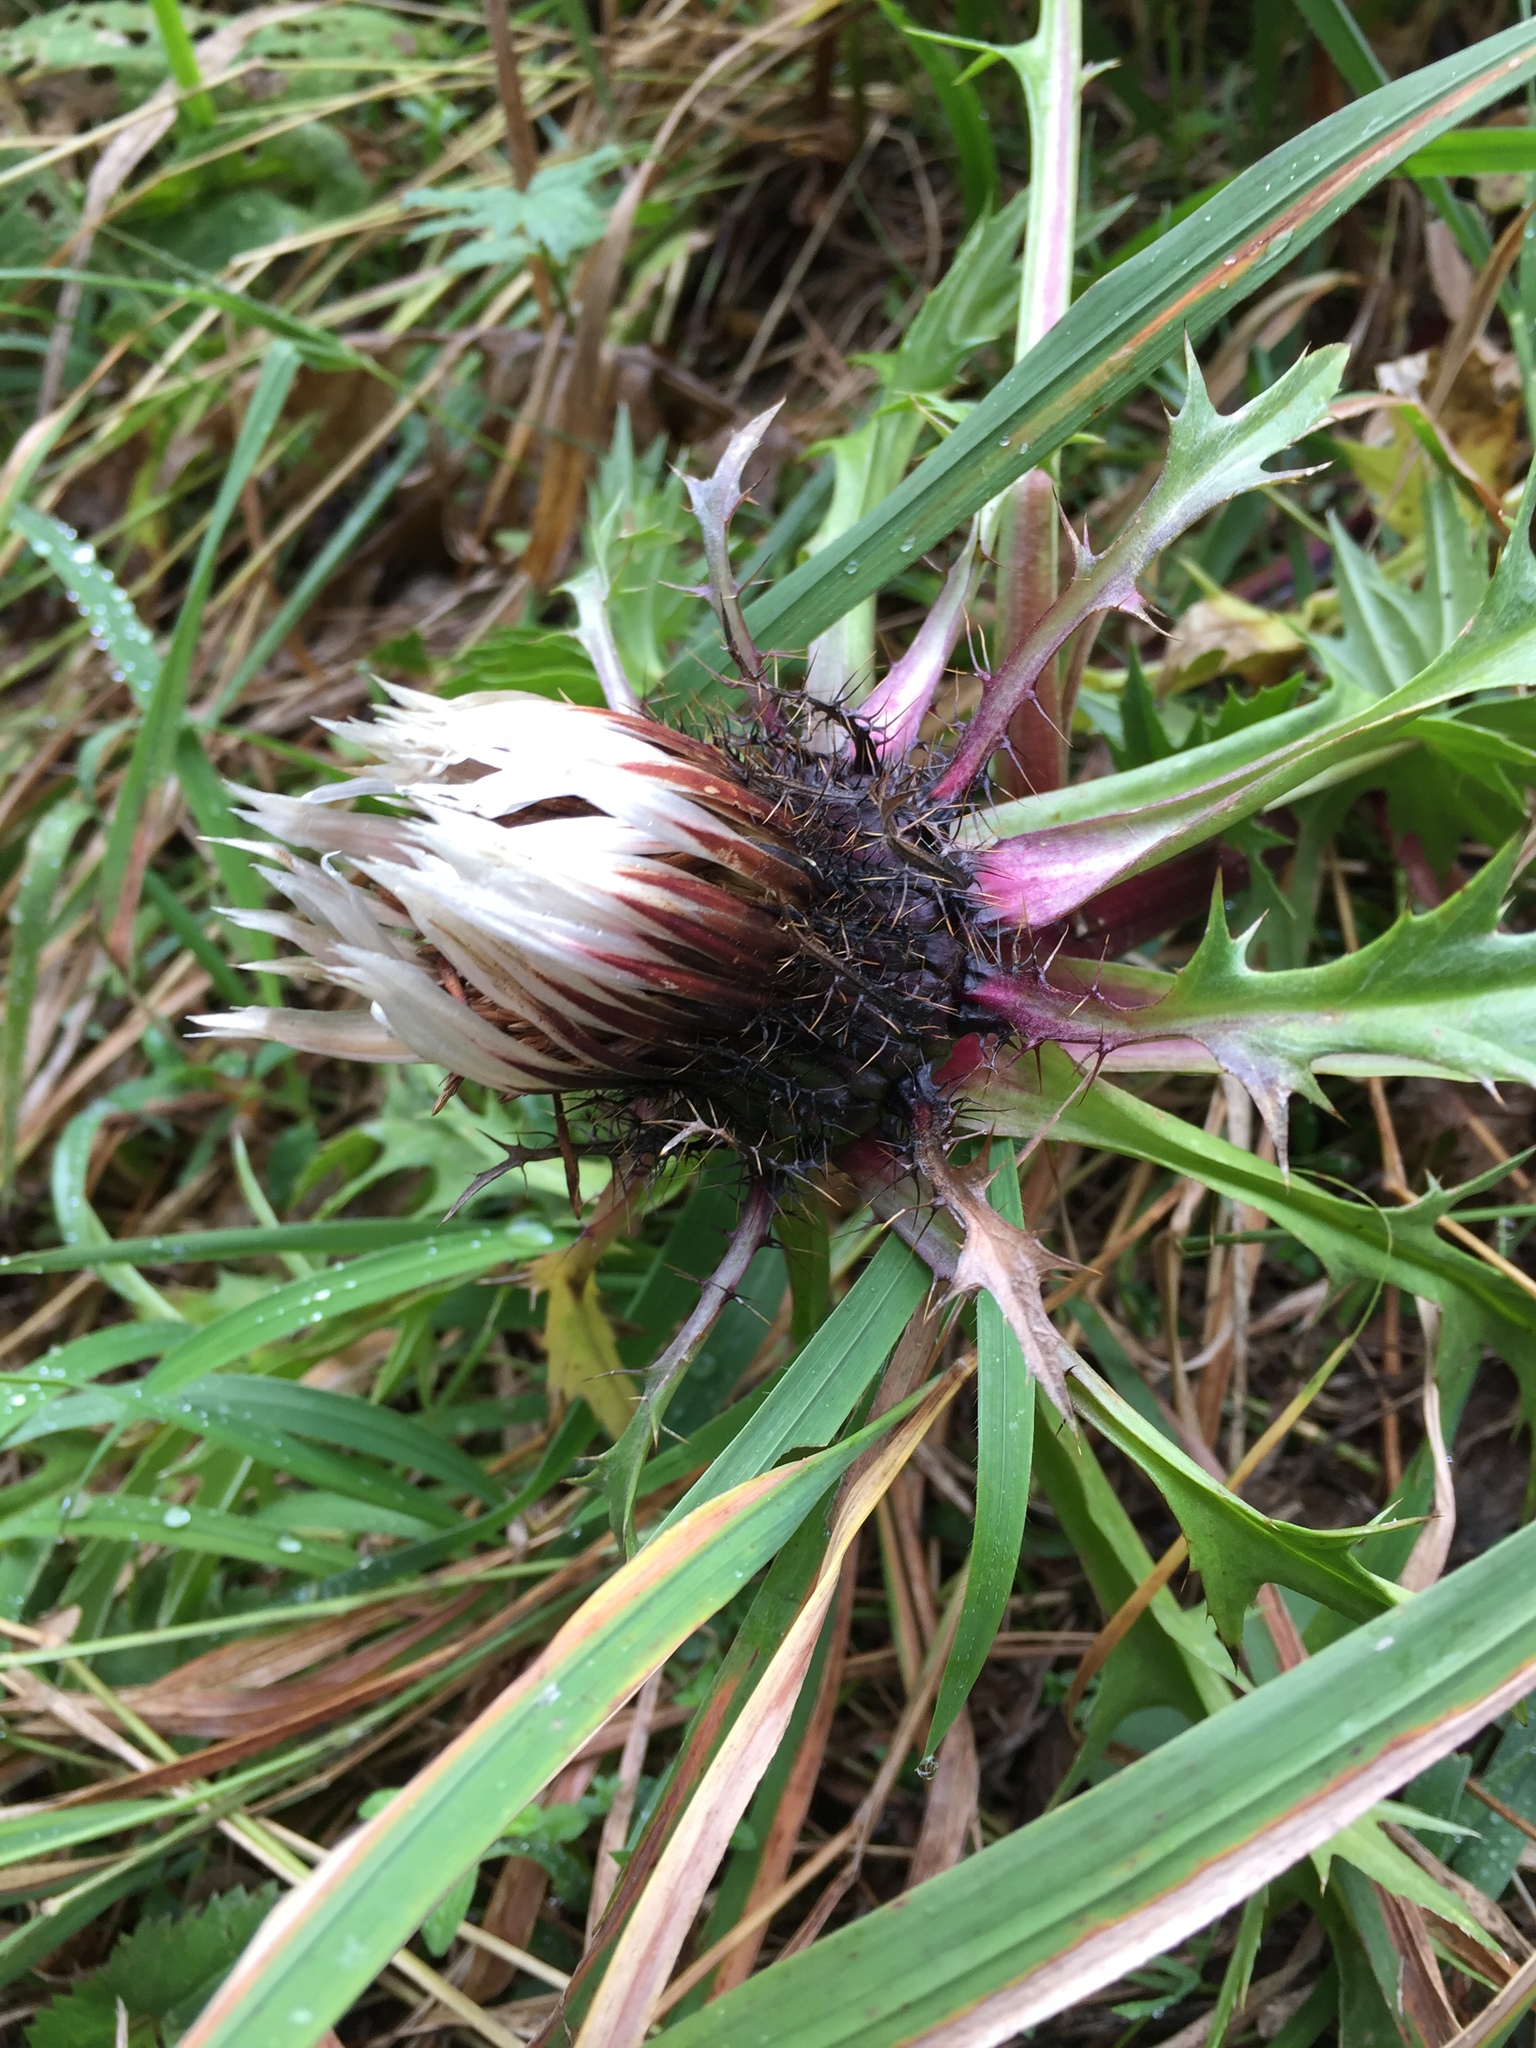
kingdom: Plantae
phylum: Tracheophyta
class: Magnoliopsida
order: Asterales
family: Asteraceae
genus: Carlina
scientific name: Carlina acaulis
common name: Stemless carline thistle
